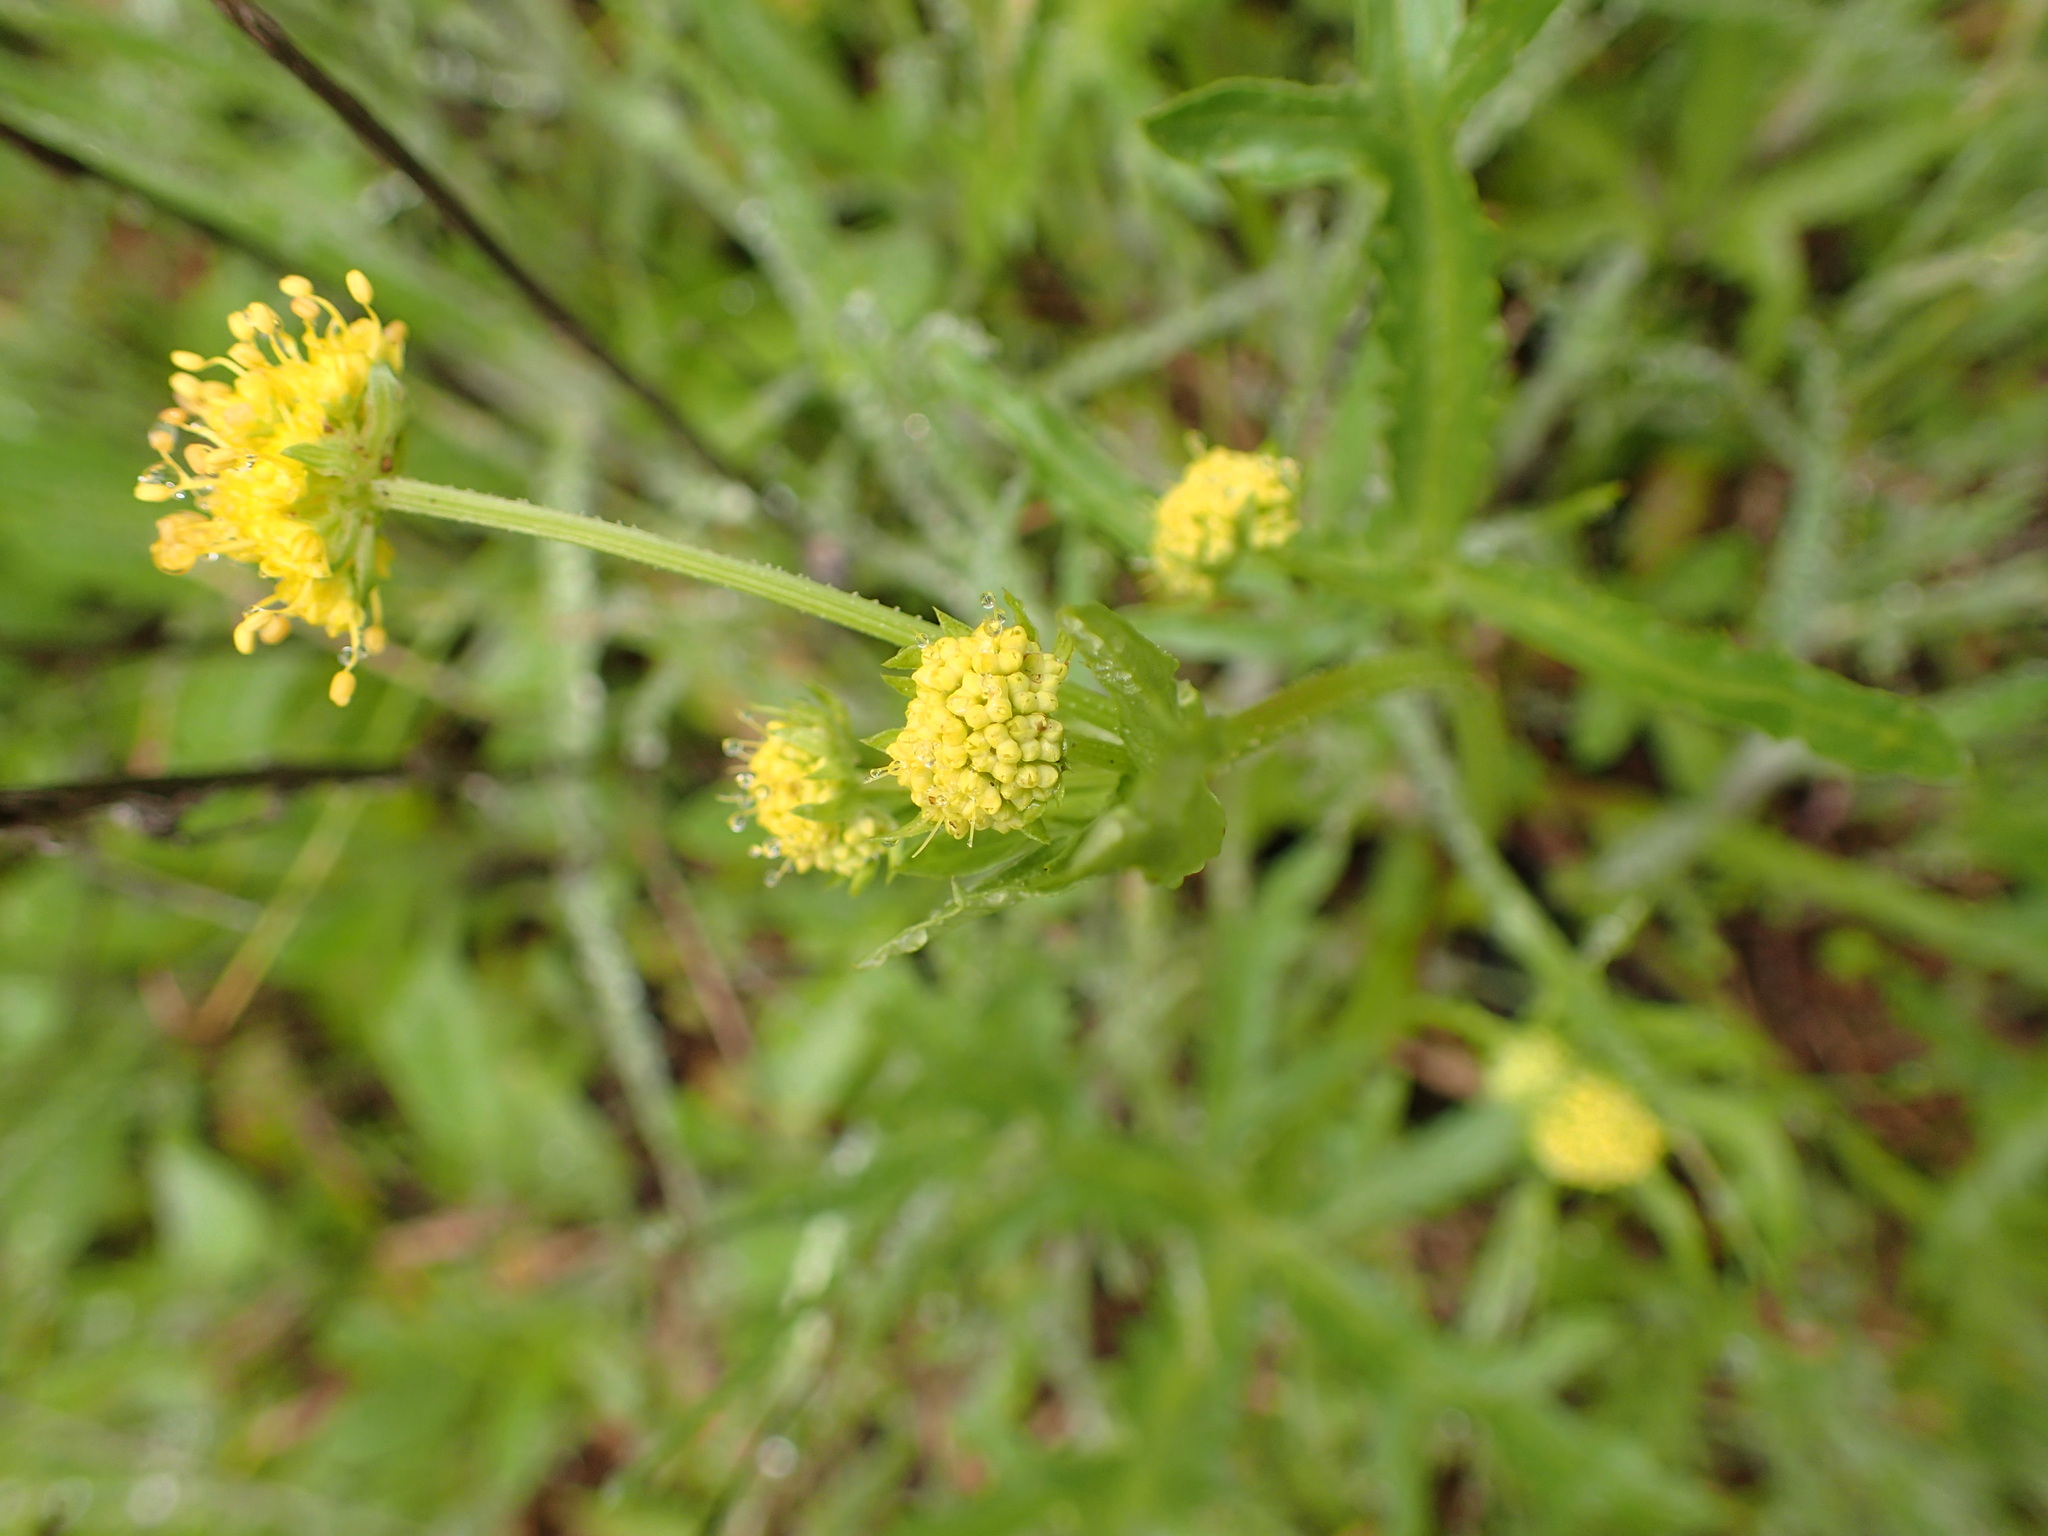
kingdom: Plantae
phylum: Tracheophyta
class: Magnoliopsida
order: Apiales
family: Apiaceae
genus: Sanicula
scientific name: Sanicula arguta
